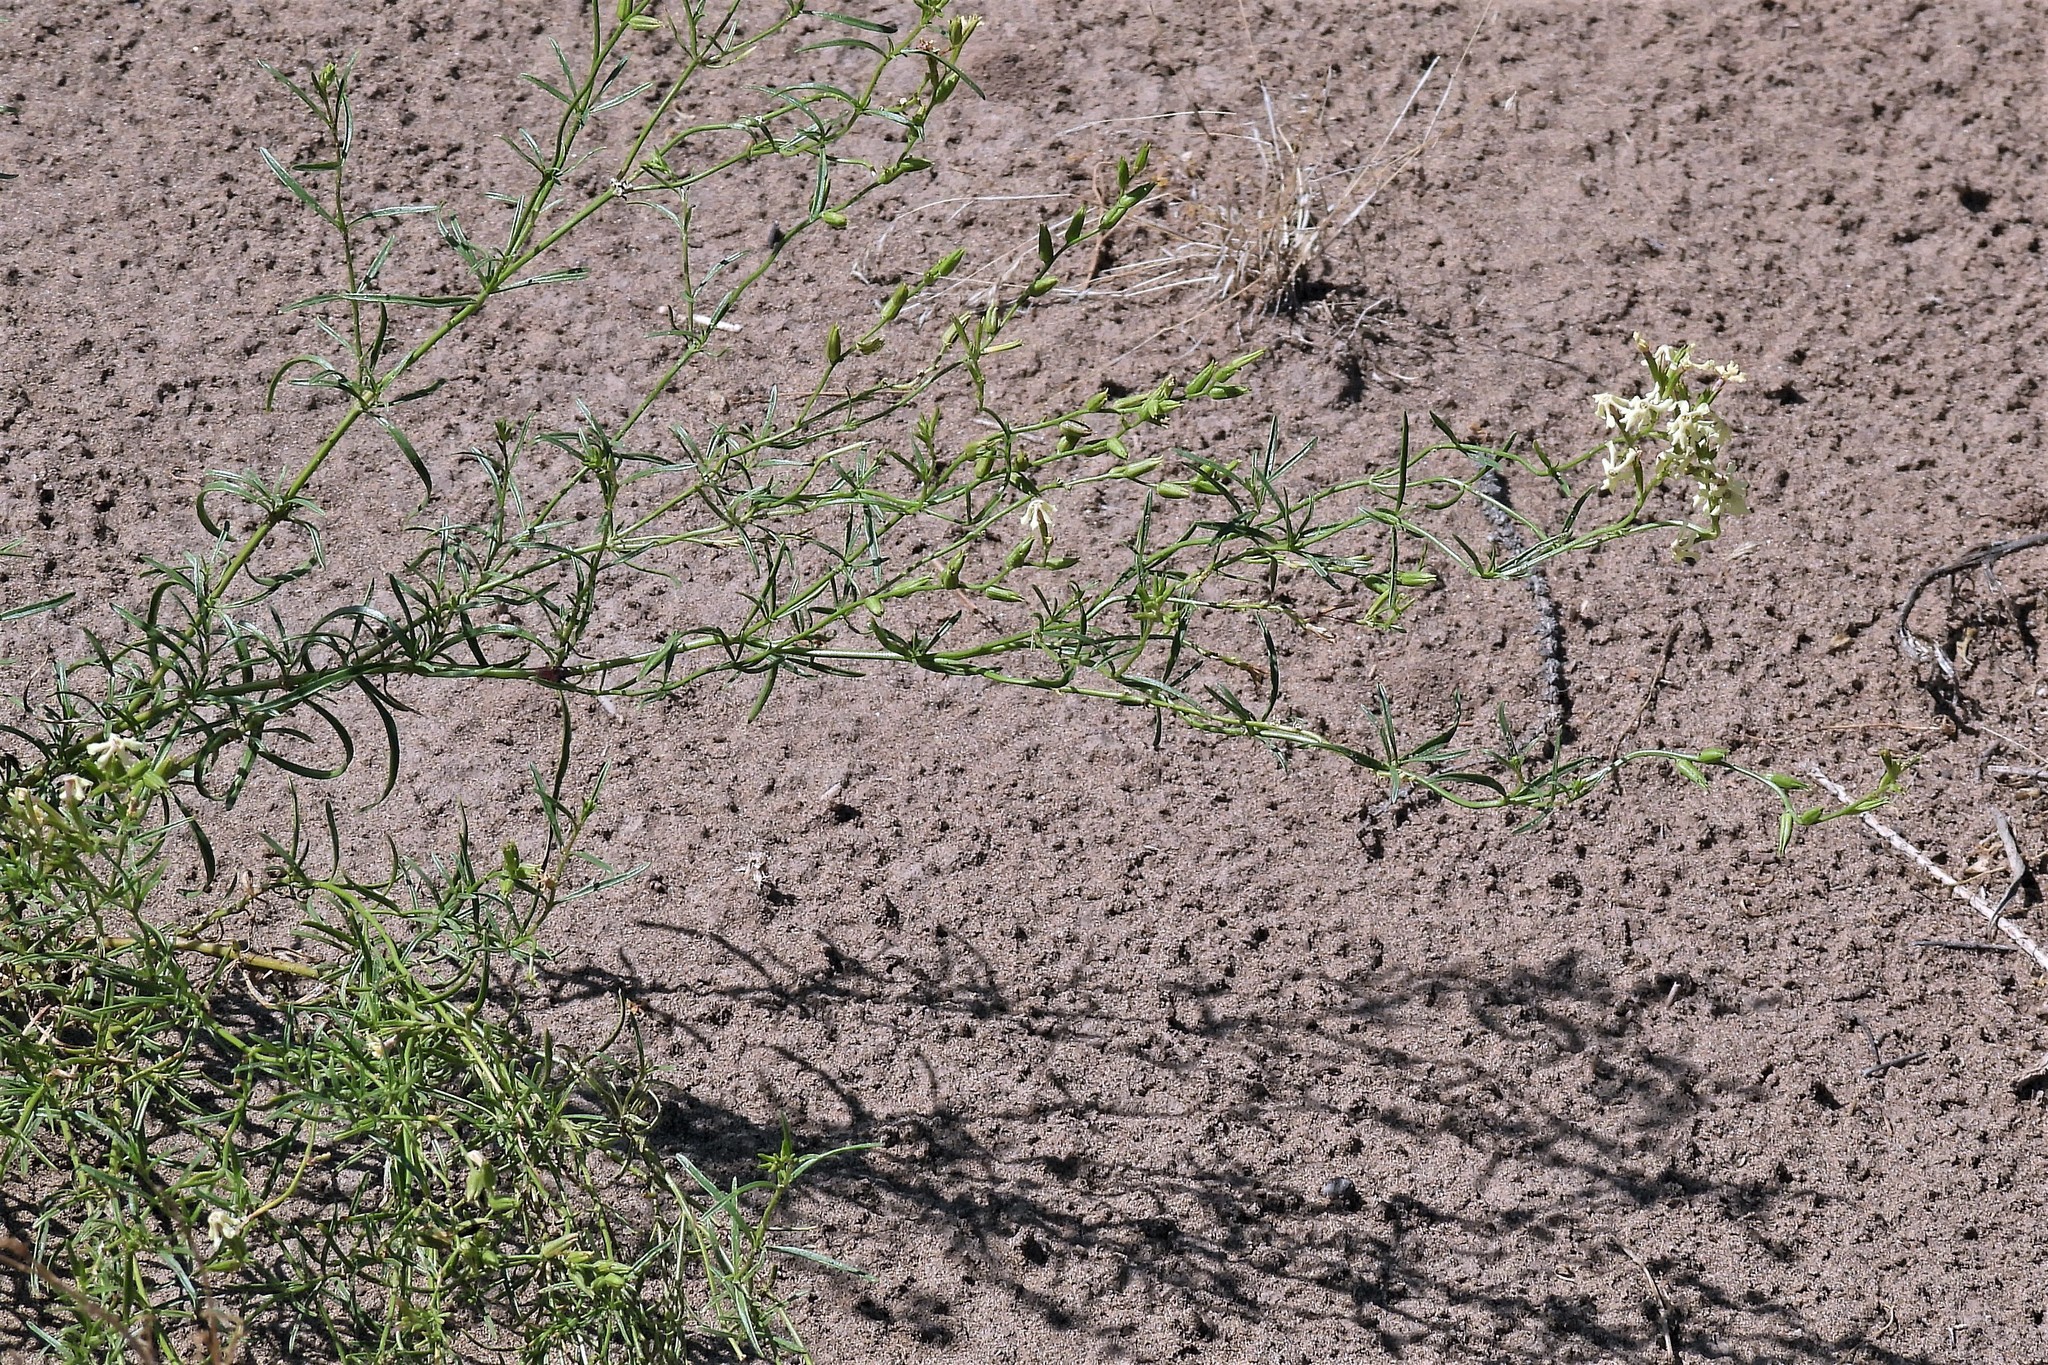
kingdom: Plantae
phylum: Tracheophyta
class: Magnoliopsida
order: Lamiales
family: Verbenaceae
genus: Verbena
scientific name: Verbena flava
